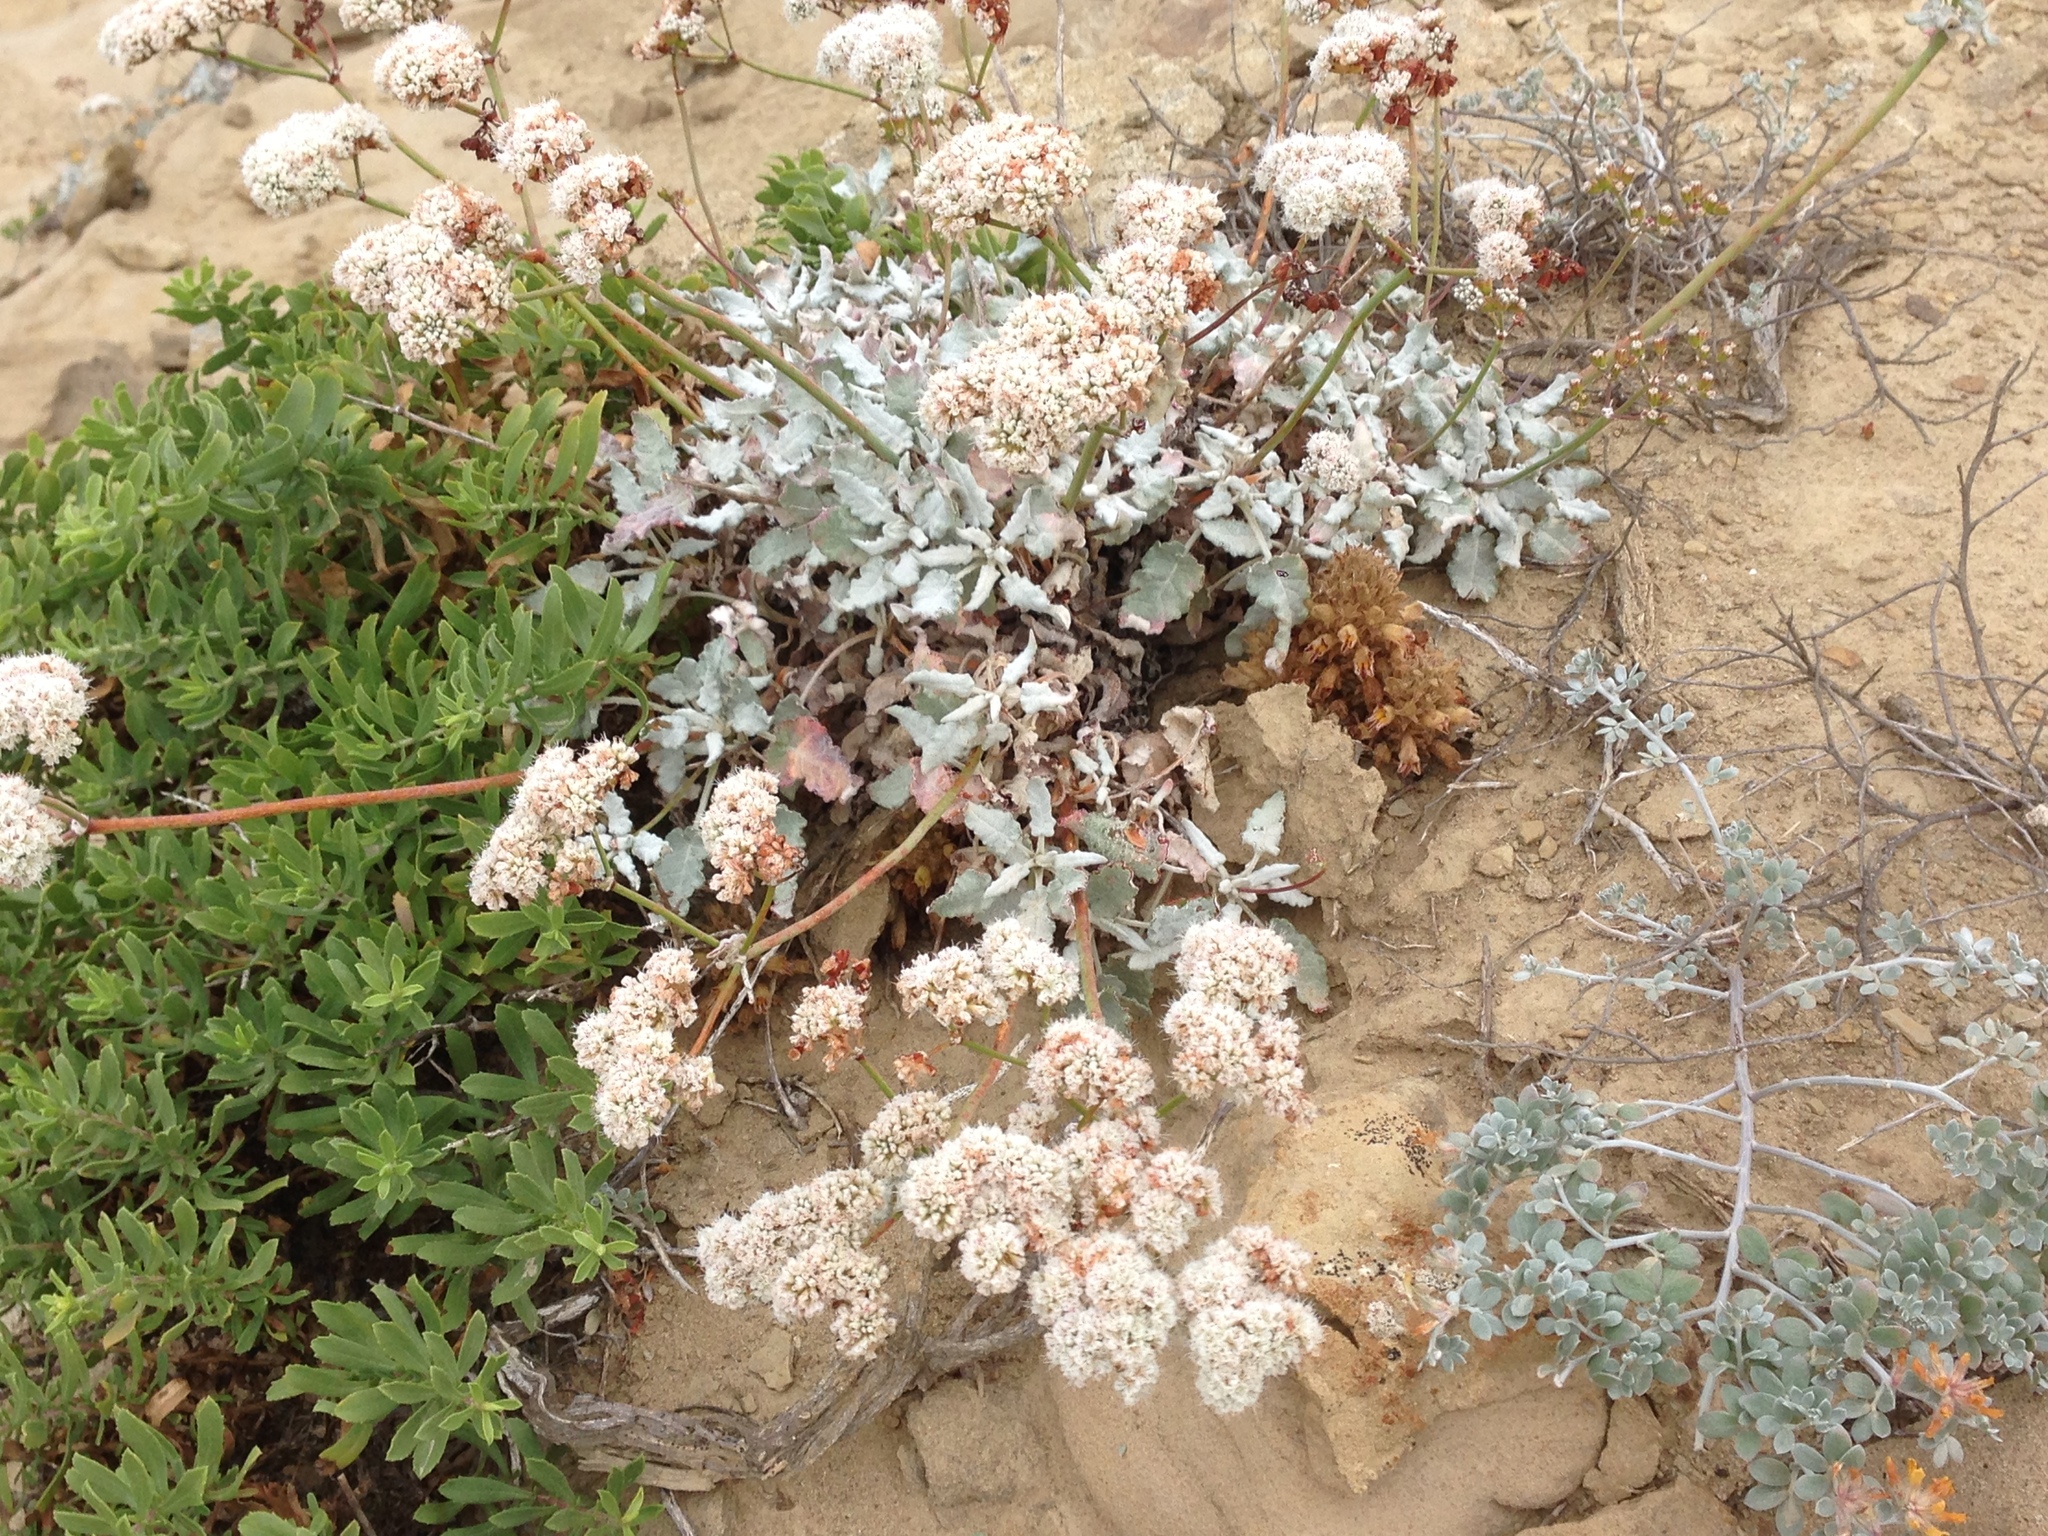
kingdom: Plantae
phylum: Tracheophyta
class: Magnoliopsida
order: Lamiales
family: Orobanchaceae
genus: Aphyllon
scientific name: Aphyllon parishii
